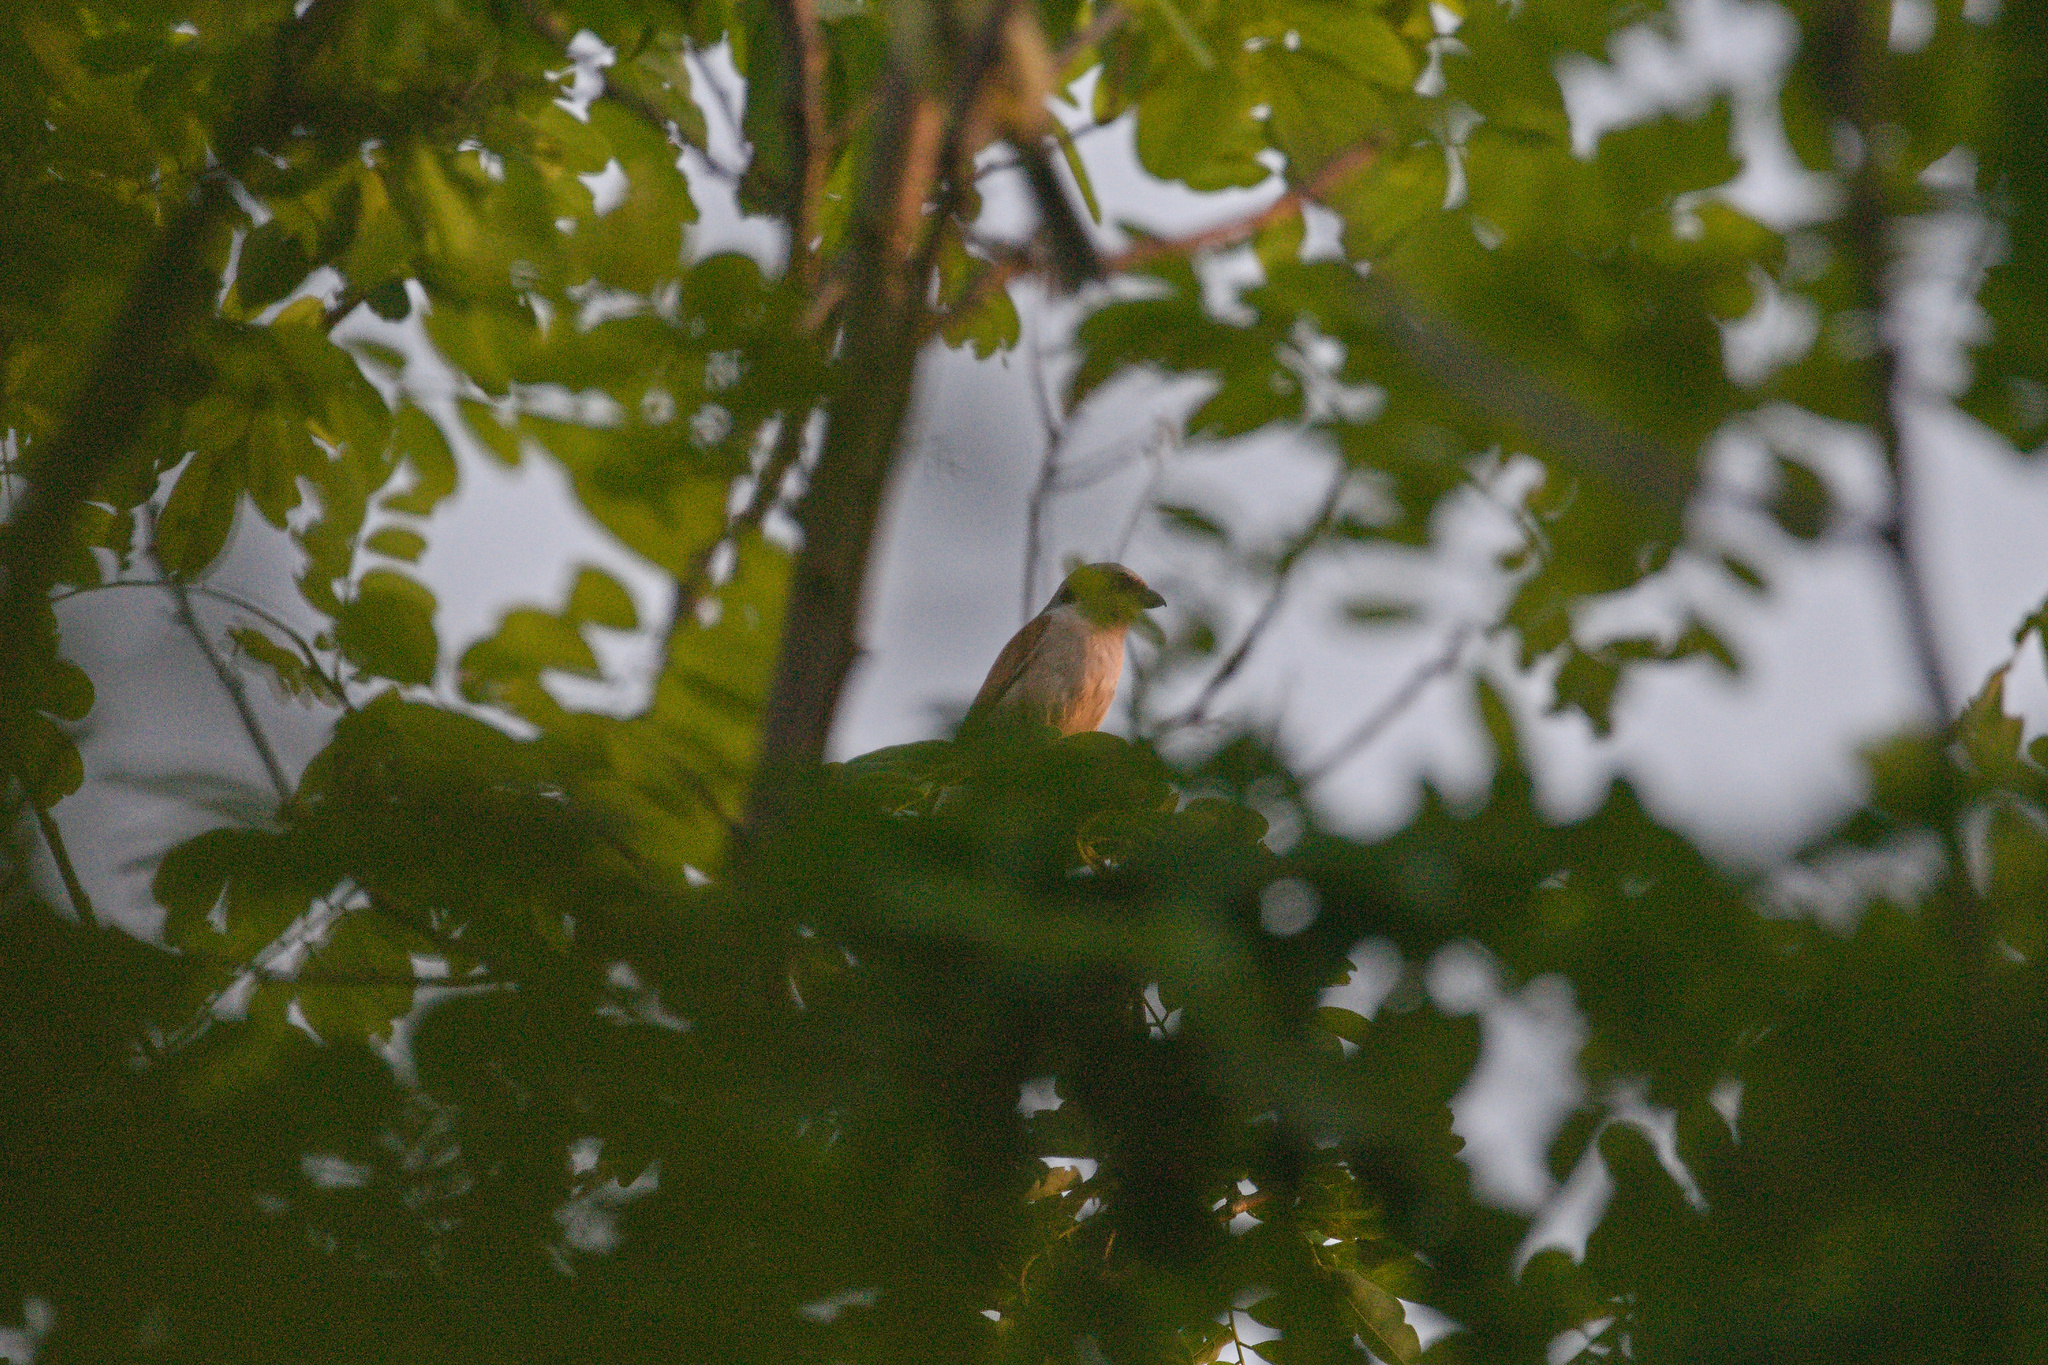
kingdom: Animalia
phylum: Chordata
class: Aves
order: Passeriformes
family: Laniidae
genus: Lanius
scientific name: Lanius collurio
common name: Red-backed shrike
